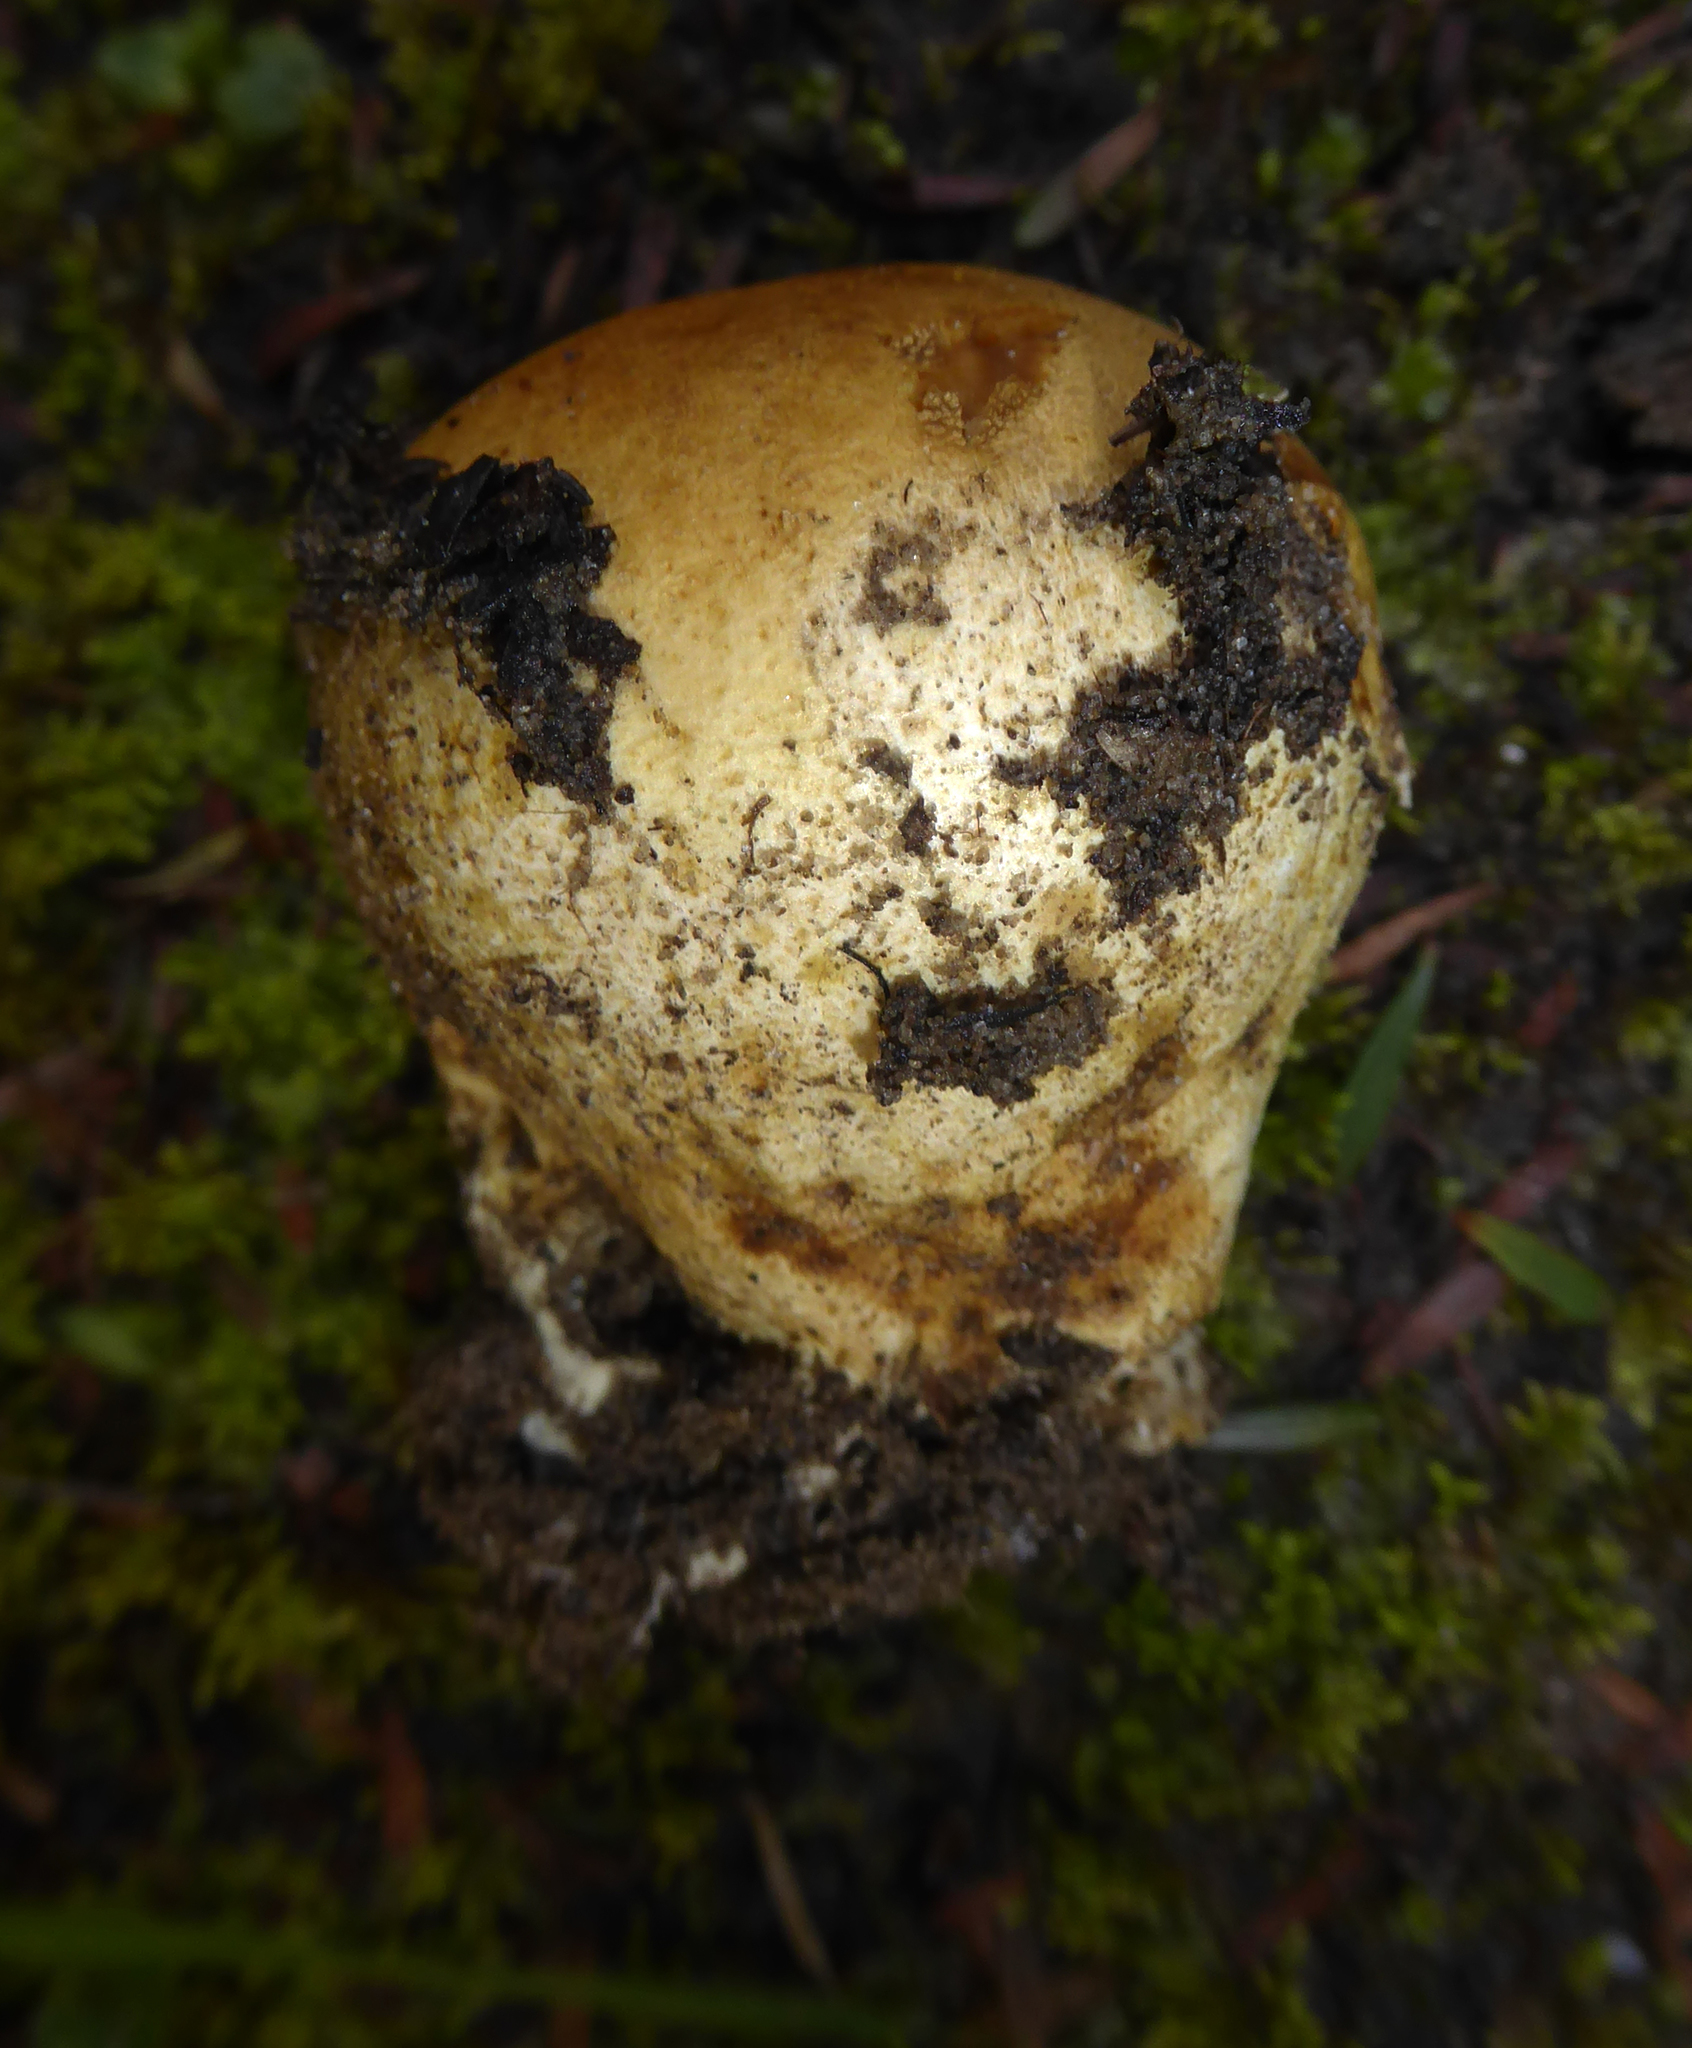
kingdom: Fungi
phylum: Basidiomycota
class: Agaricomycetes
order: Boletales
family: Sclerodermataceae
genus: Scleroderma
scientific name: Scleroderma
